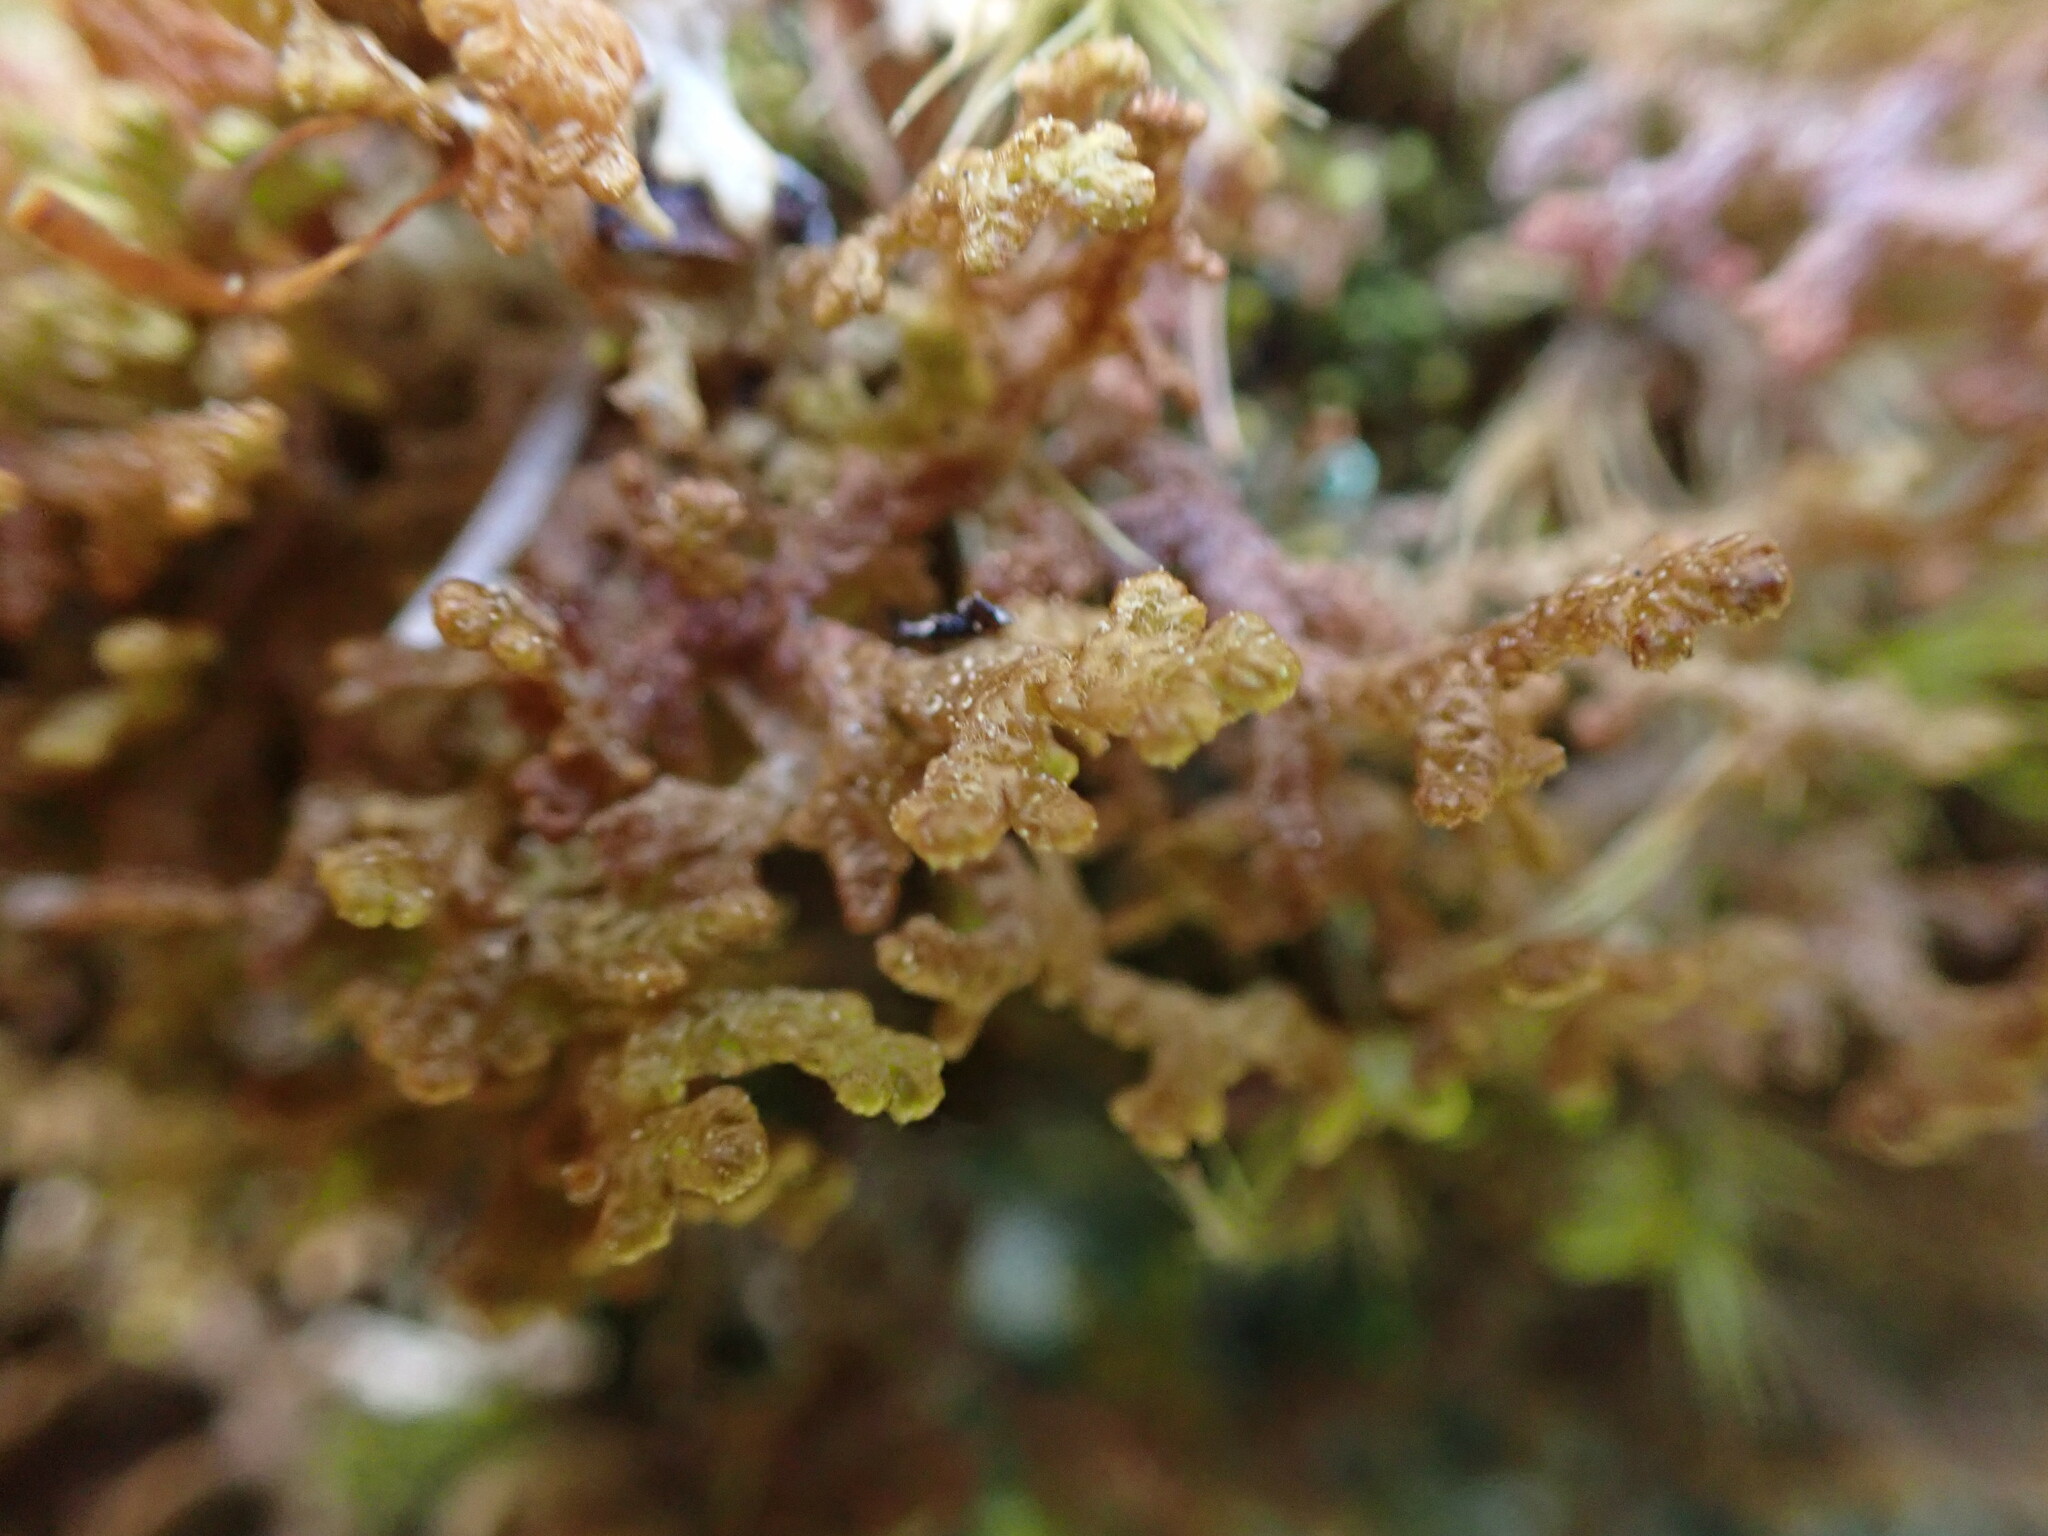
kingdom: Plantae
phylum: Marchantiophyta
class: Jungermanniopsida
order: Ptilidiales
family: Ptilidiaceae
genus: Ptilidium
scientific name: Ptilidium ciliare
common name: Ciliate fringewort
